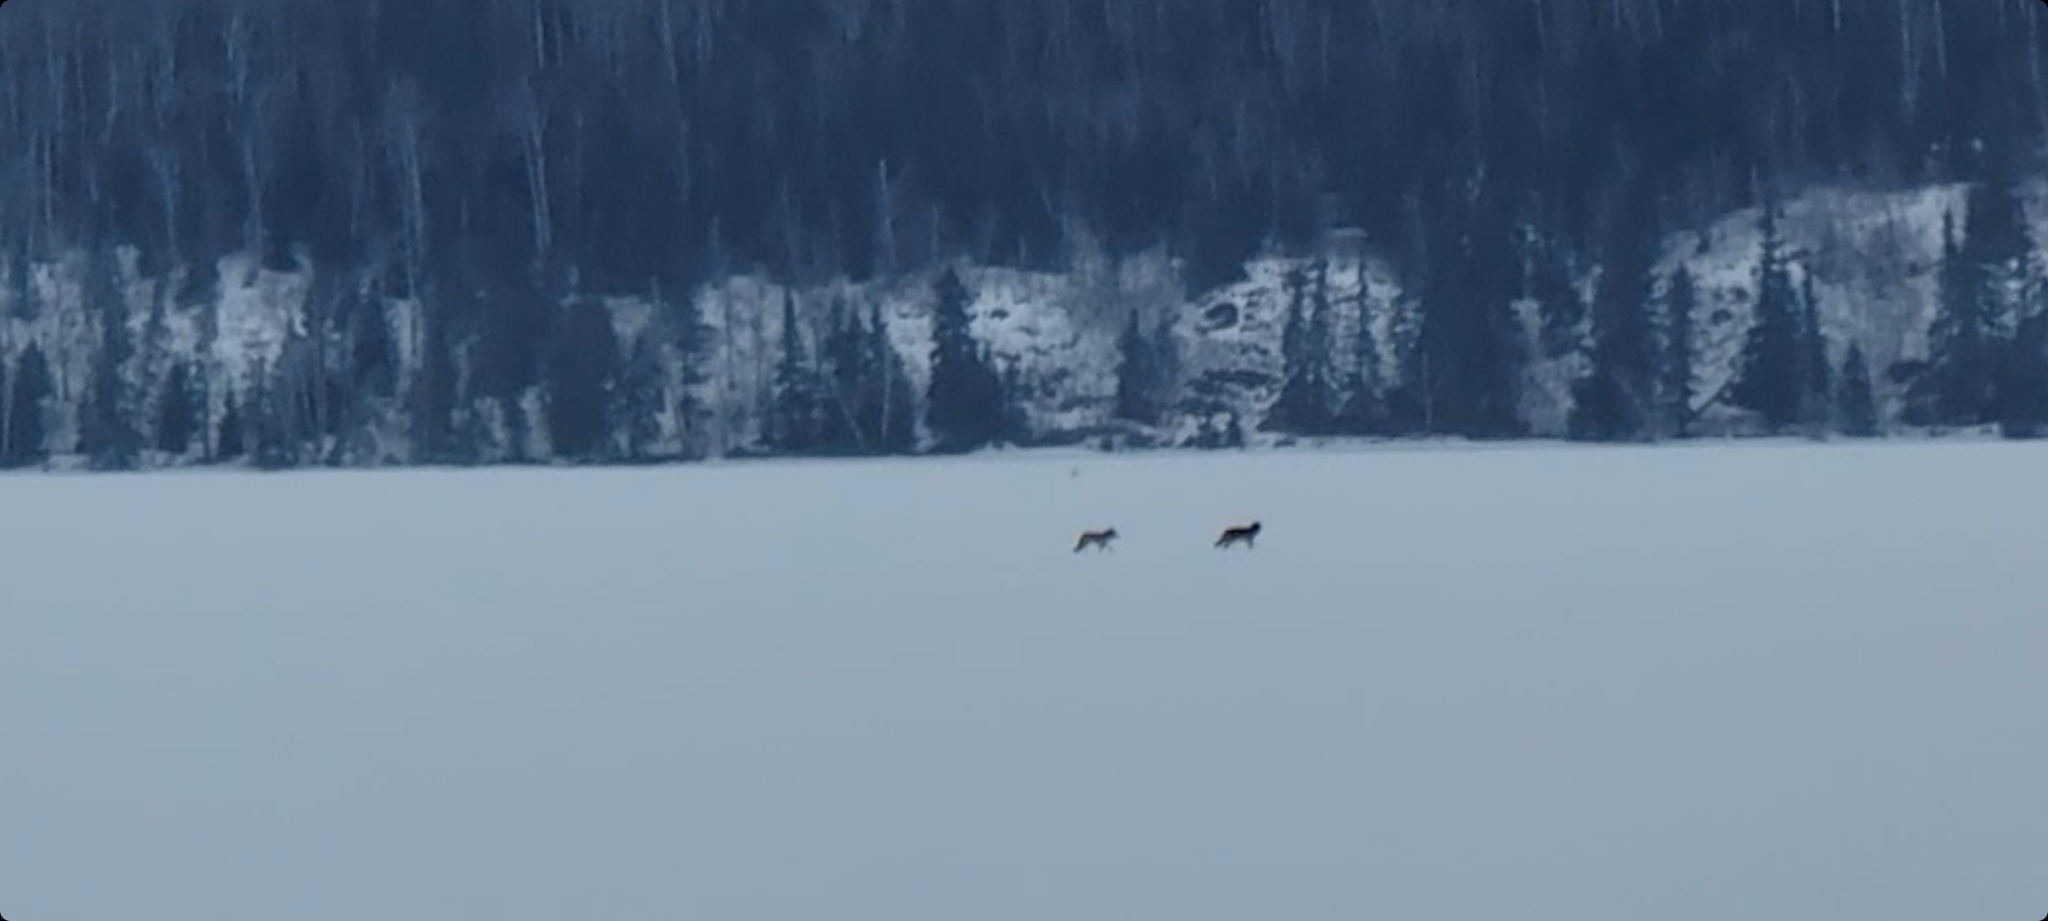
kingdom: Animalia
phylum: Chordata
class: Mammalia
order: Carnivora
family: Canidae
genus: Canis
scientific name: Canis lupus
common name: Gray wolf
